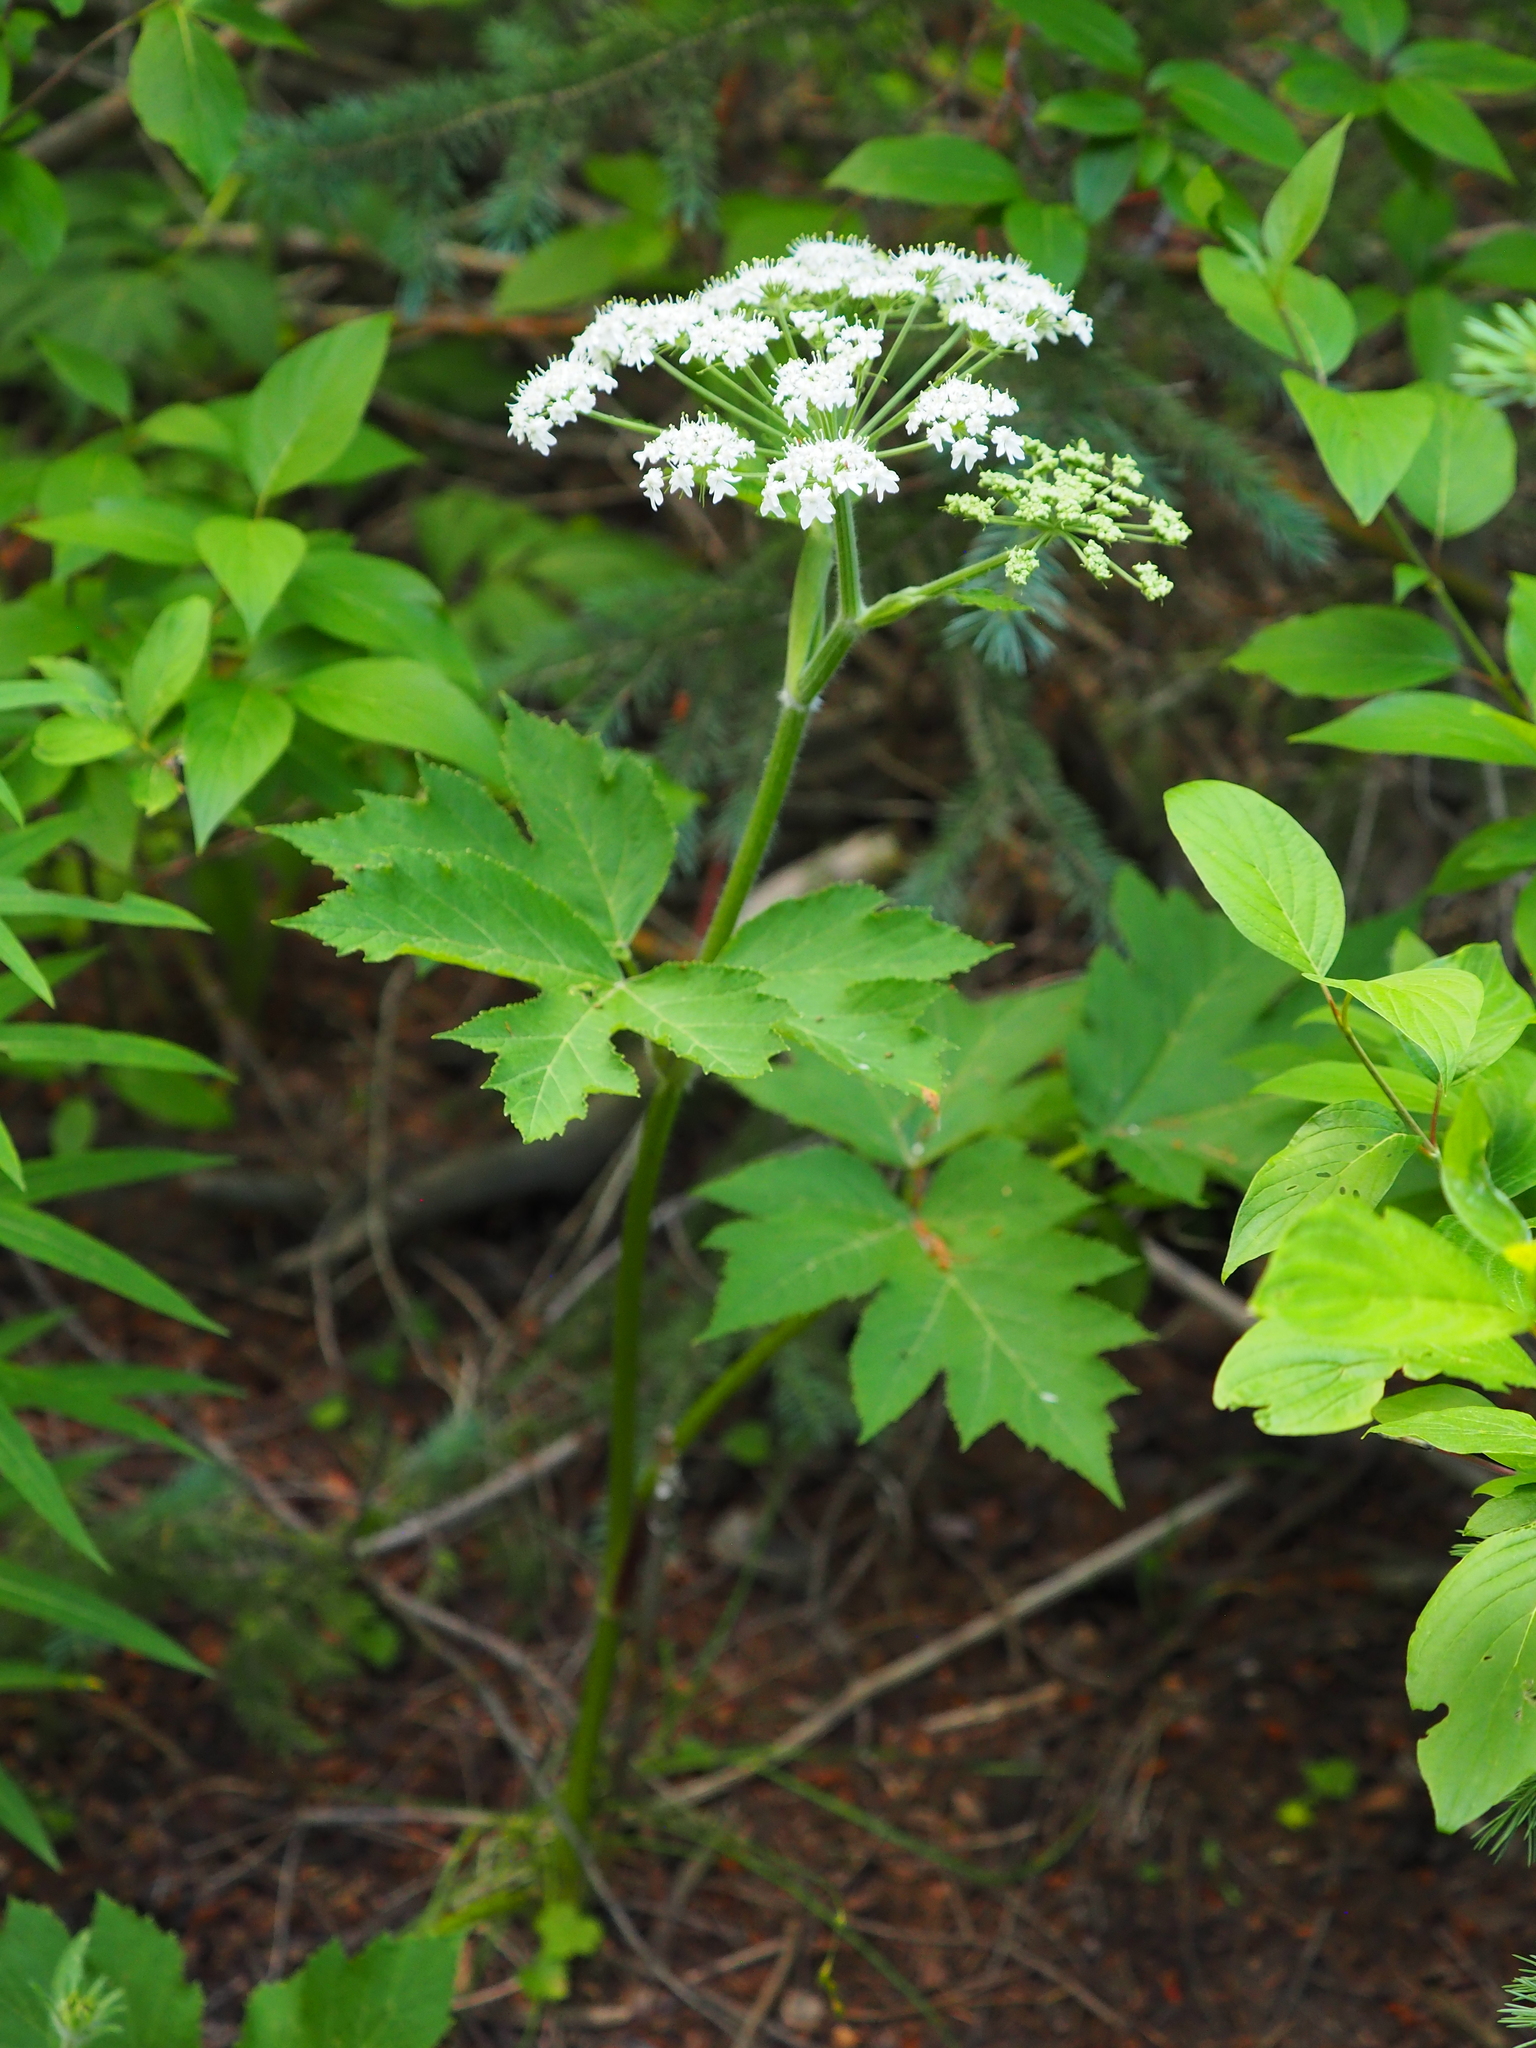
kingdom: Plantae
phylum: Tracheophyta
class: Magnoliopsida
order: Apiales
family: Apiaceae
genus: Heracleum
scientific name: Heracleum maximum
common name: American cow parsnip
